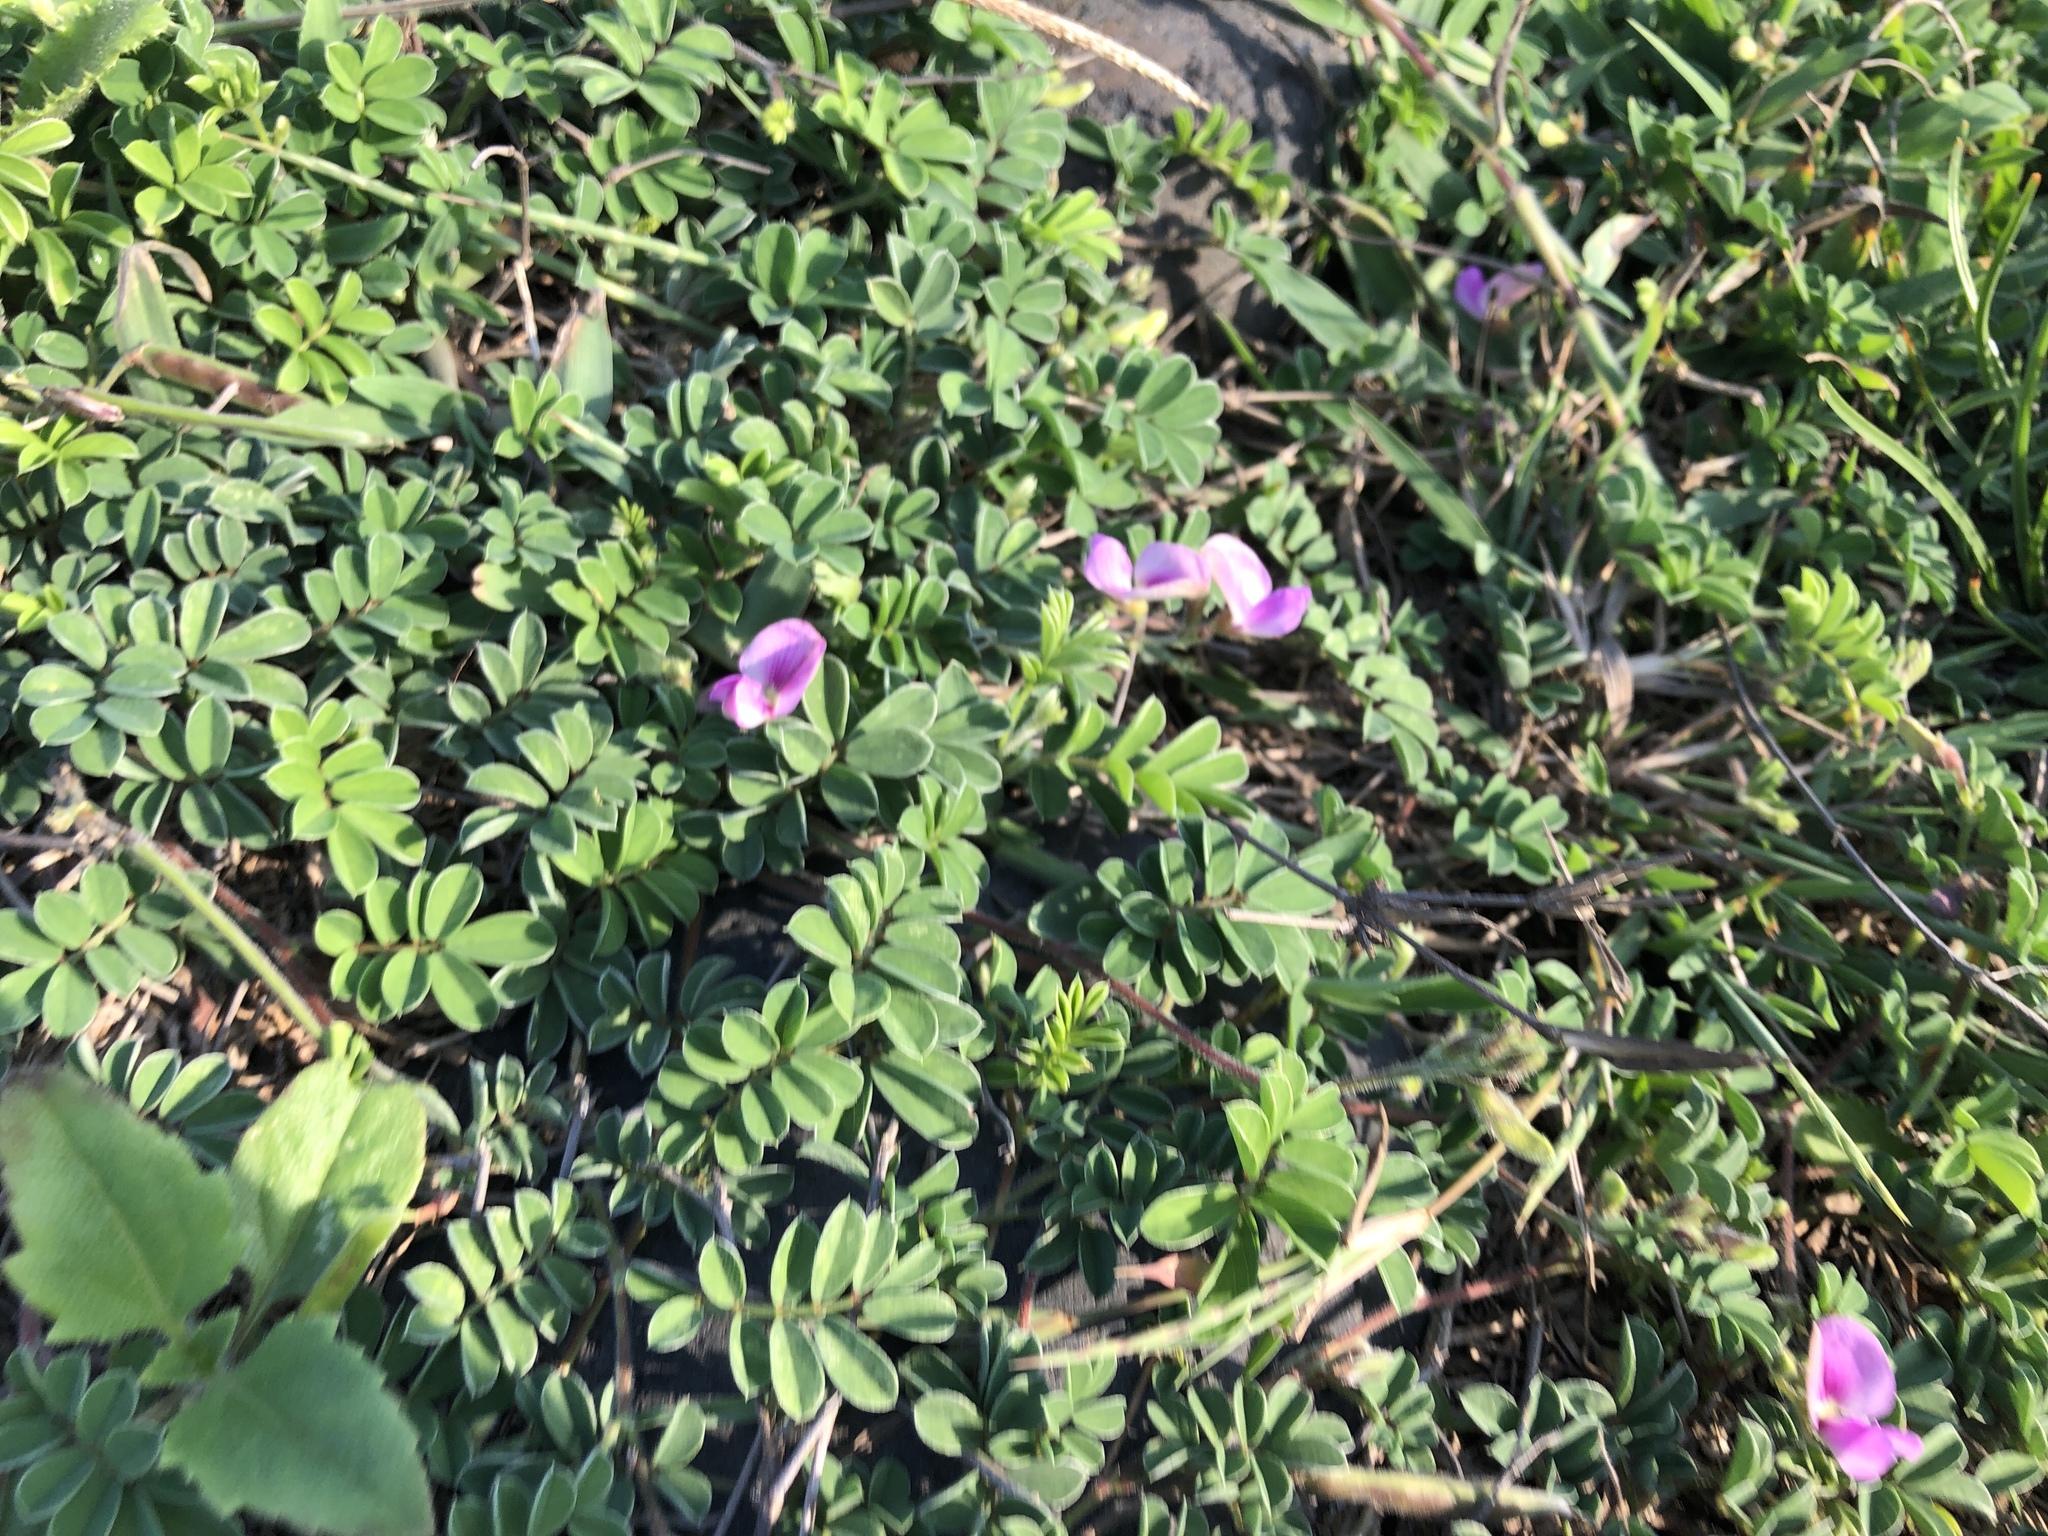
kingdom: Plantae
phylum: Tracheophyta
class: Magnoliopsida
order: Fabales
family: Fabaceae
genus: Tephrosia
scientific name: Tephrosia obovata
